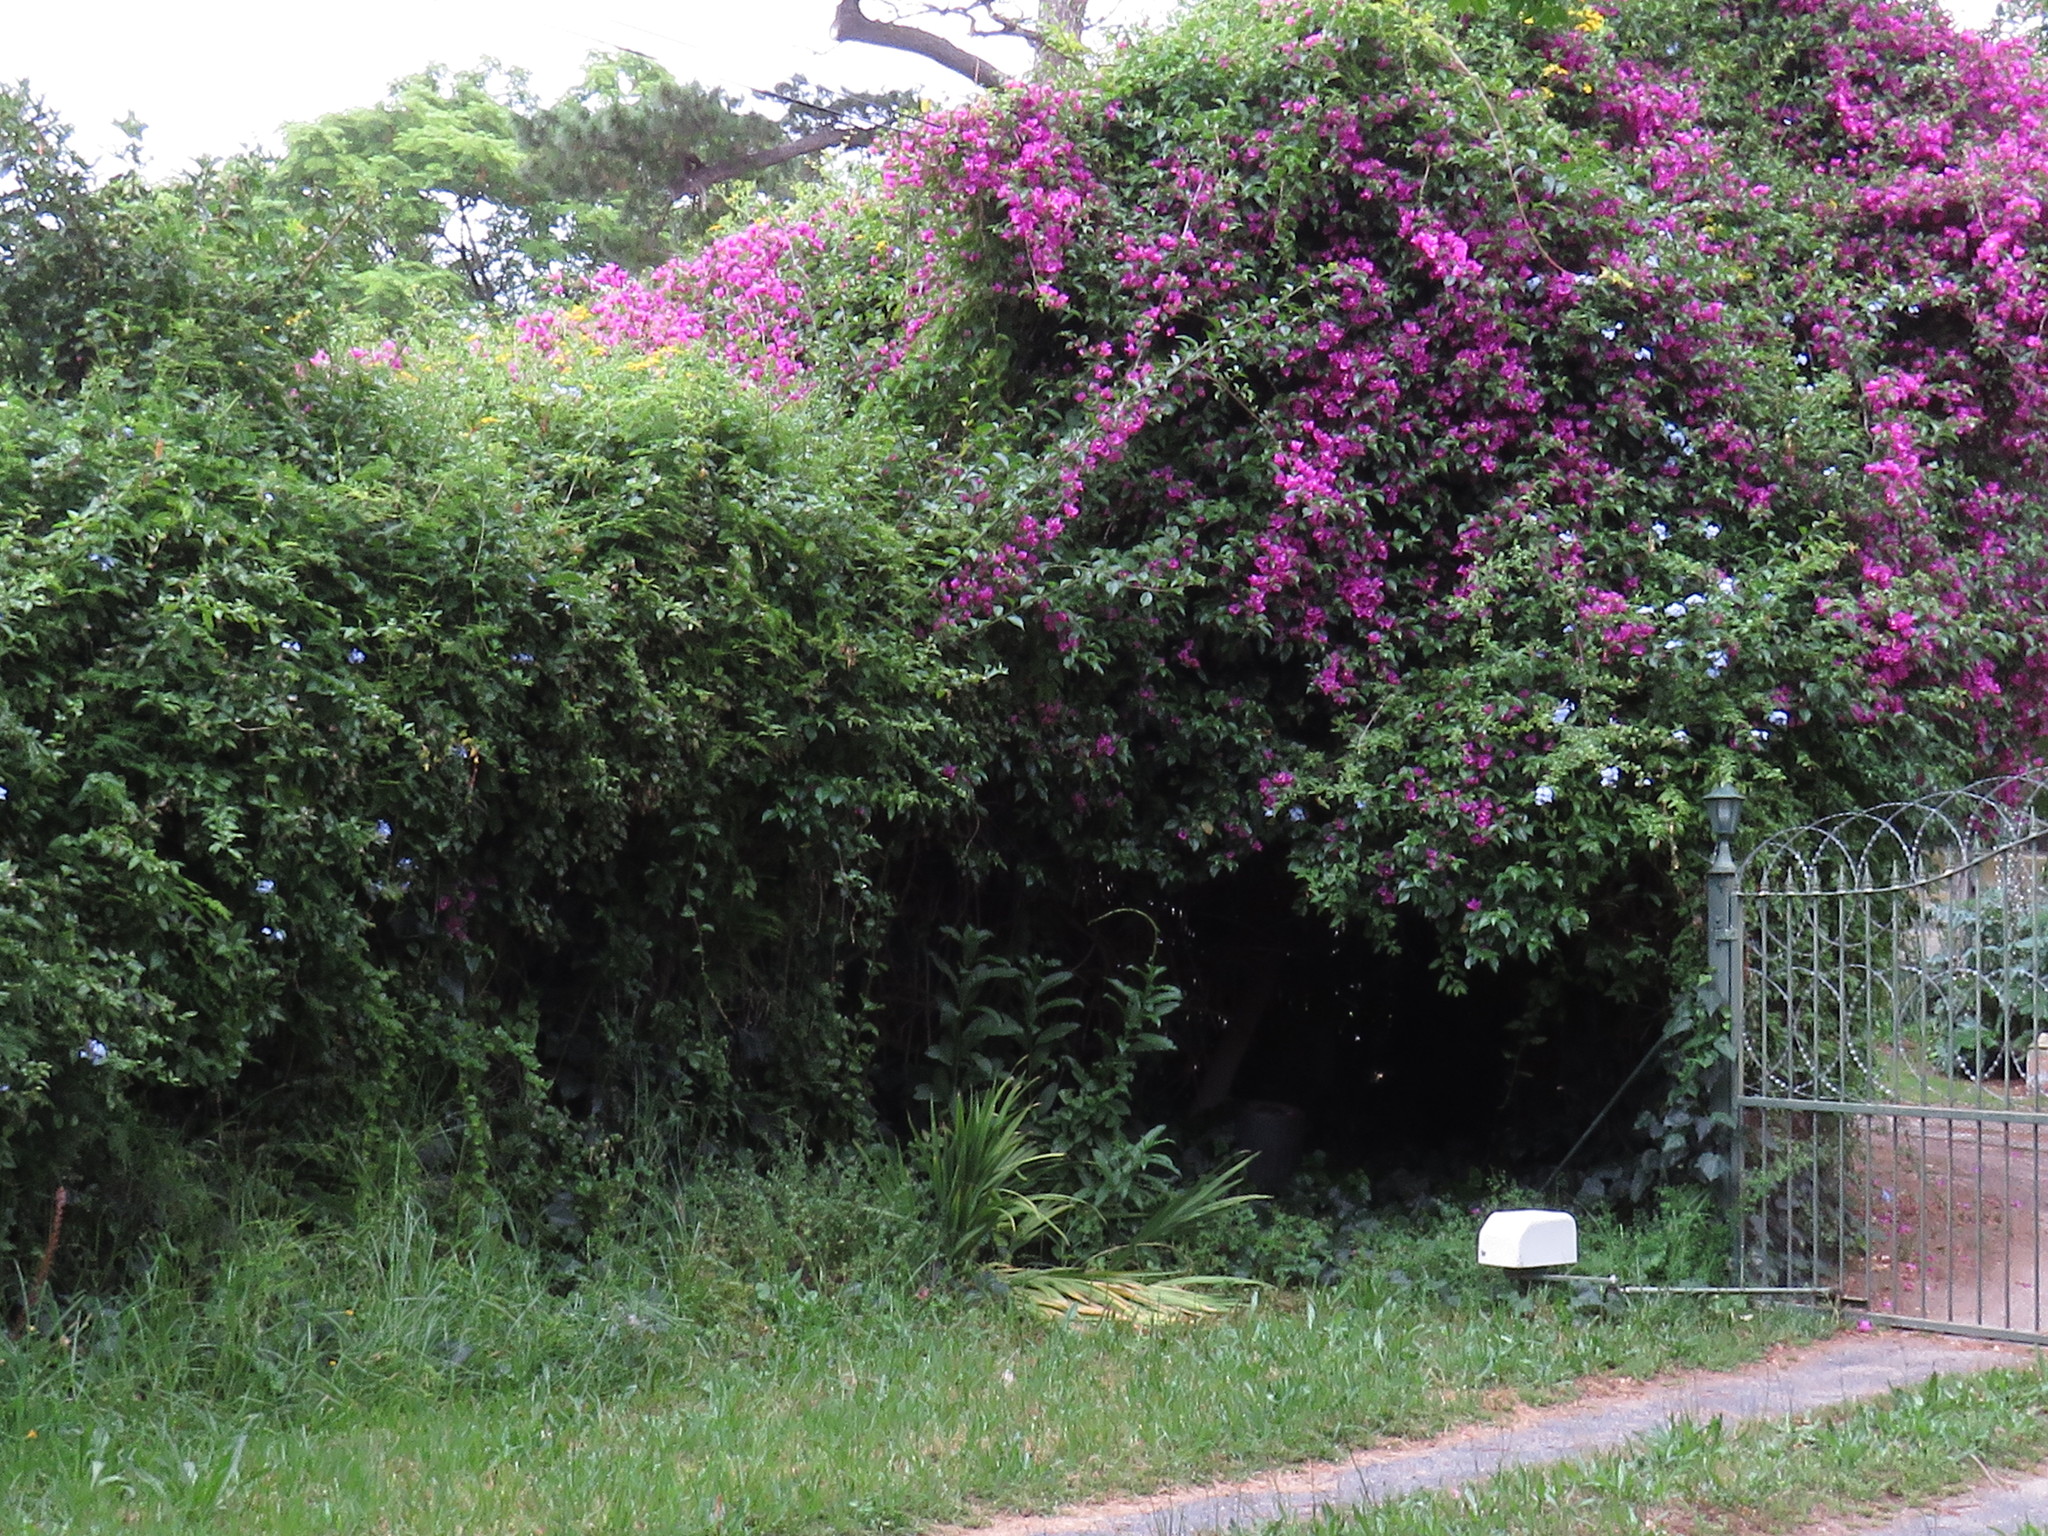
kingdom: Plantae
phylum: Tracheophyta
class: Magnoliopsida
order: Caryophyllales
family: Basellaceae
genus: Anredera
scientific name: Anredera cordifolia
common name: Heartleaf madeiravine
